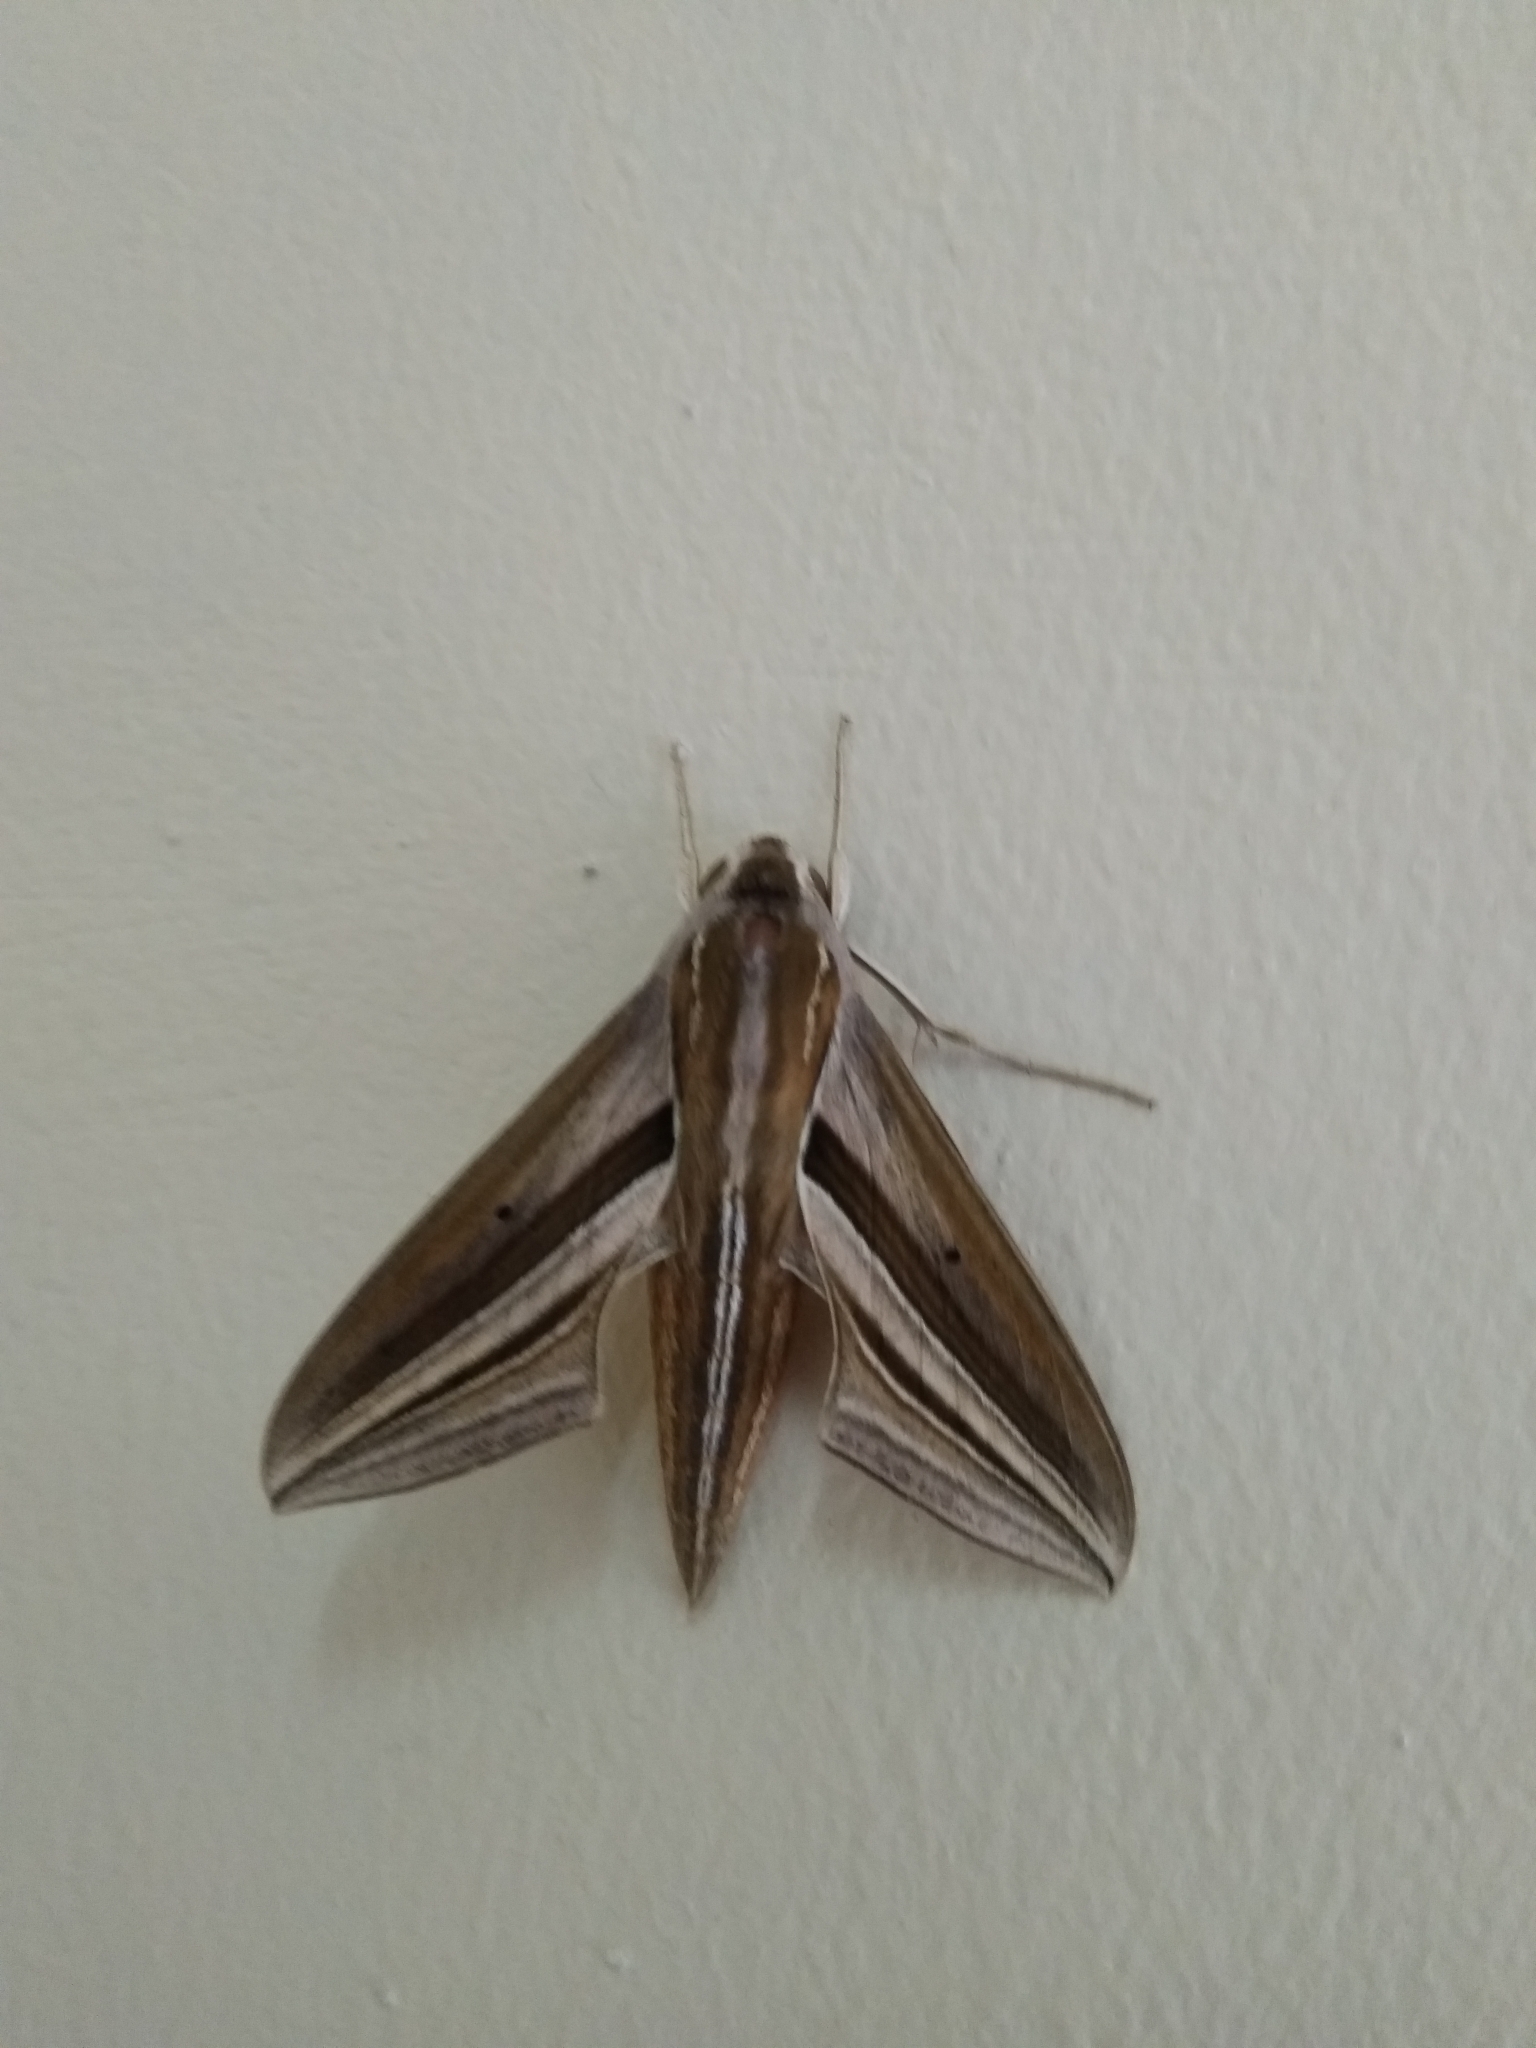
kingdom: Animalia
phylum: Arthropoda
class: Insecta
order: Lepidoptera
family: Sphingidae
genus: Theretra
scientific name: Theretra oldenlandiae
